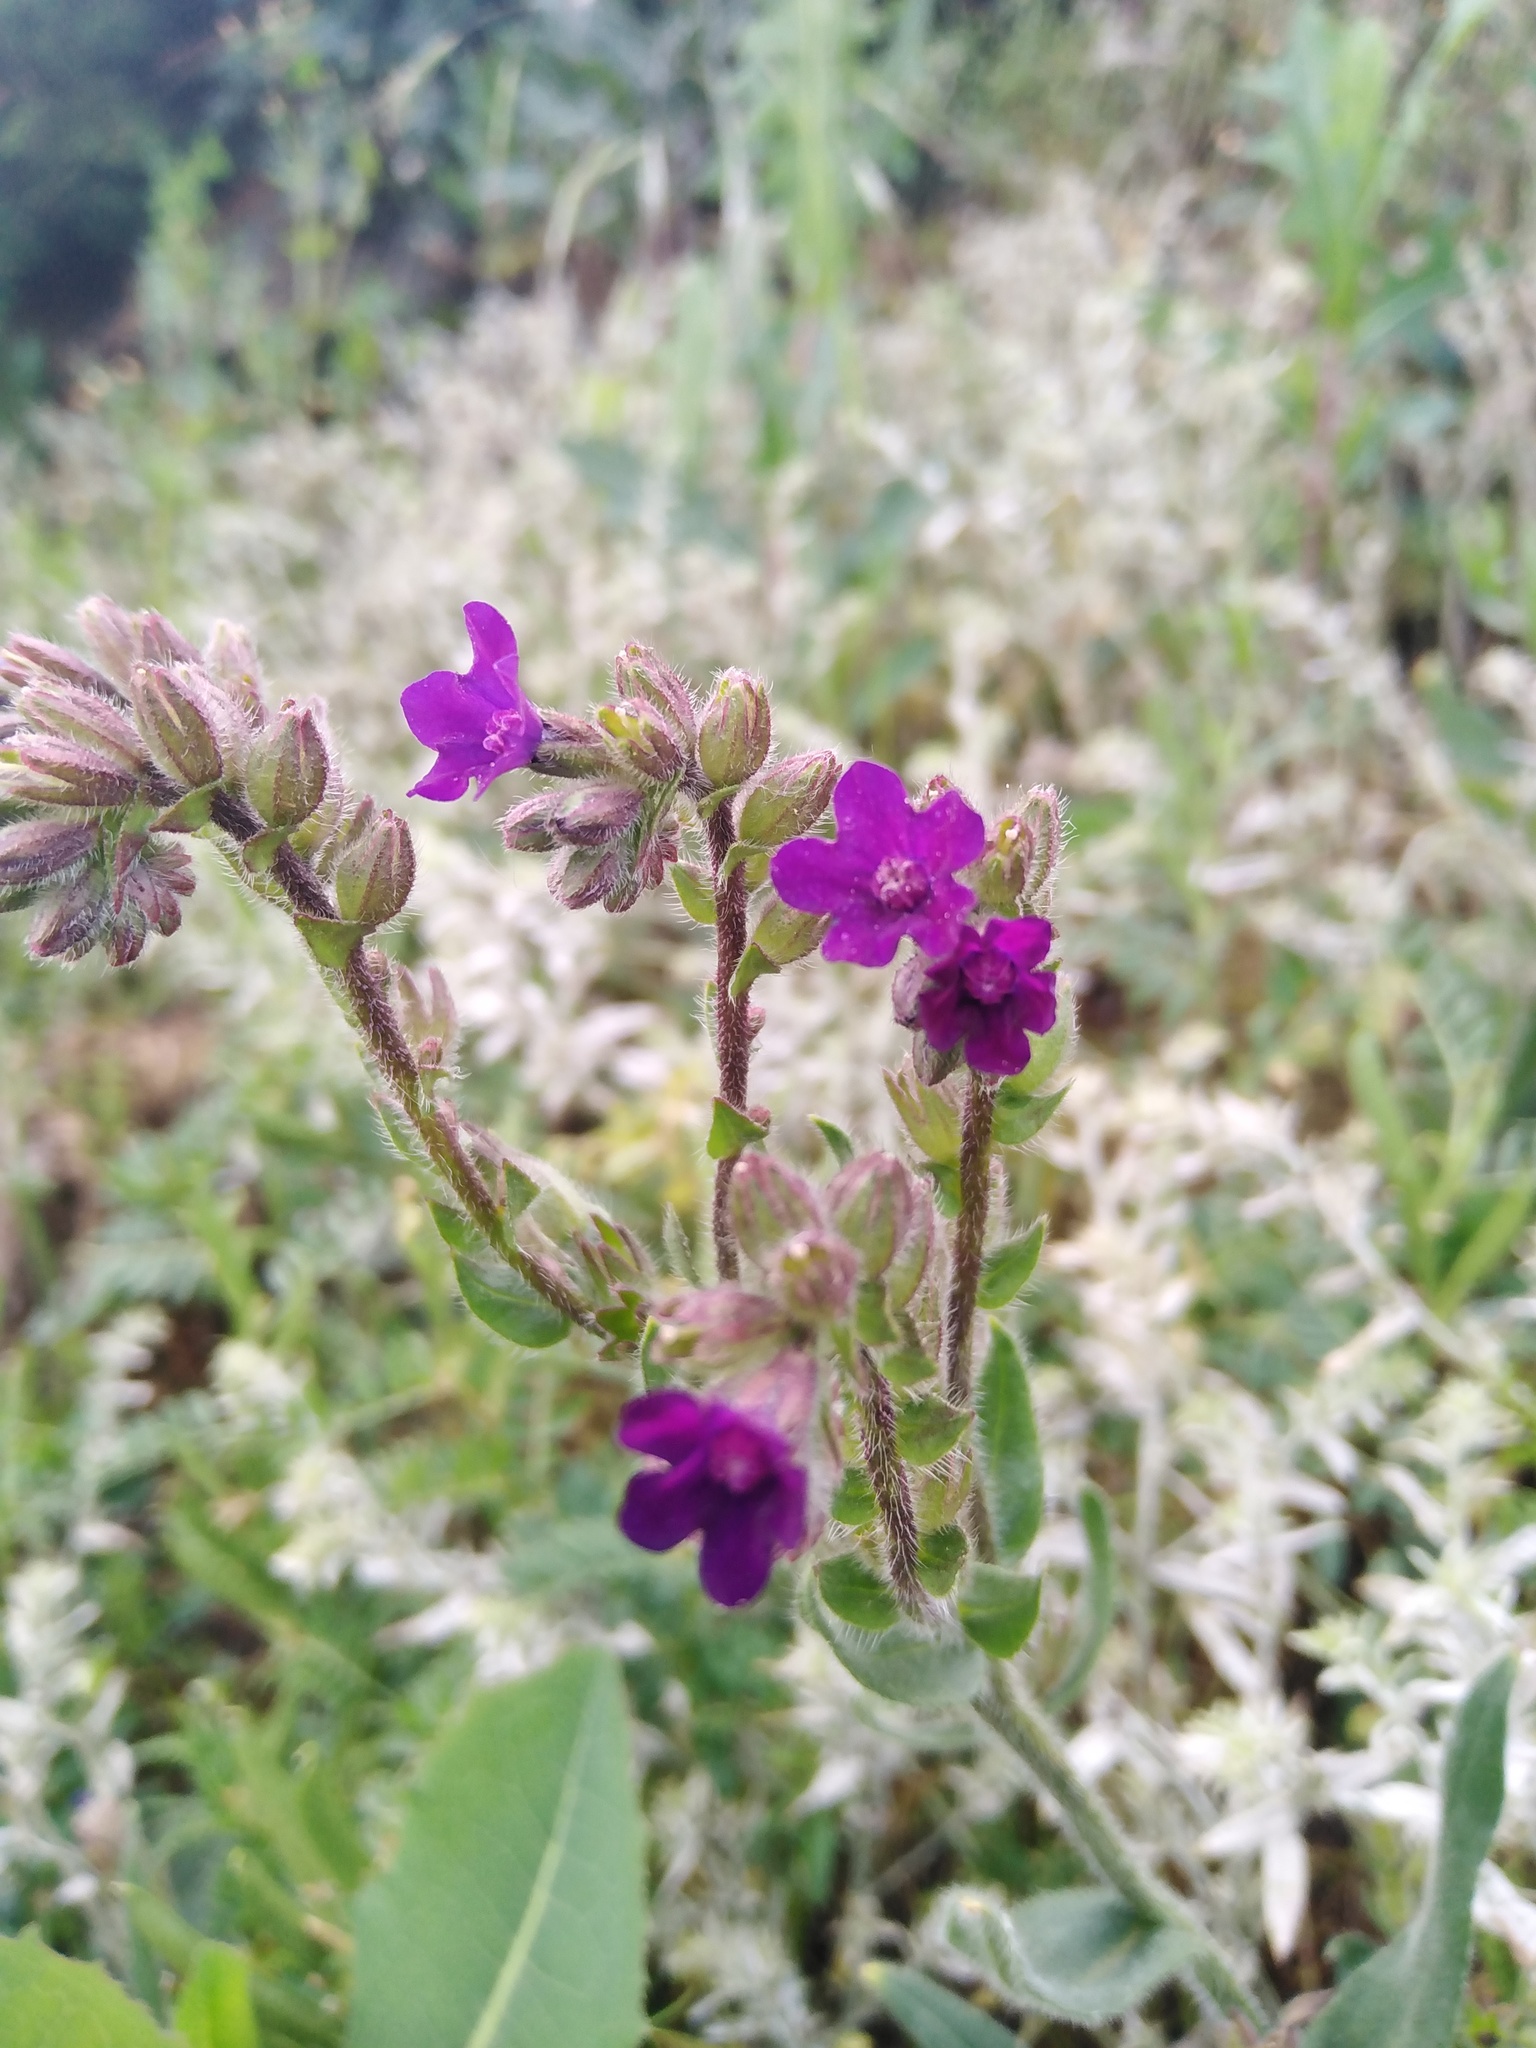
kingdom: Plantae
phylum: Tracheophyta
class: Magnoliopsida
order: Boraginales
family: Boraginaceae
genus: Anchusa
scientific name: Anchusa officinalis
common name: Alkanet
